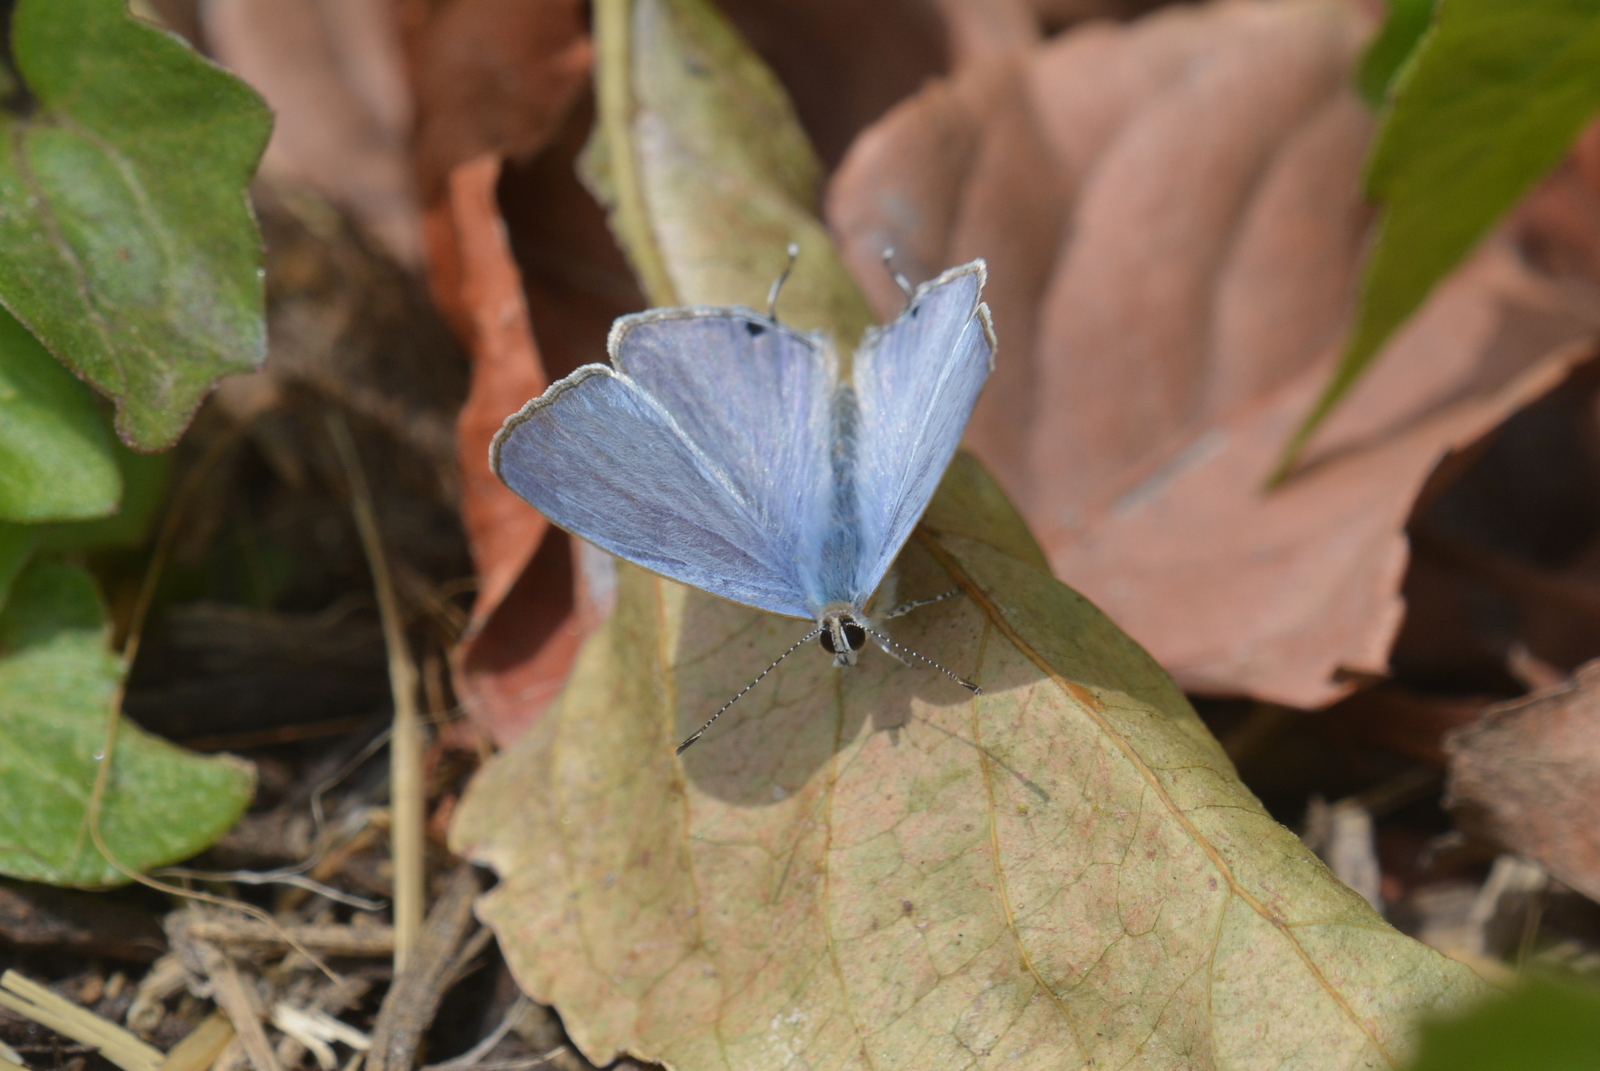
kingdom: Animalia
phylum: Arthropoda
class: Insecta
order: Lepidoptera
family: Lycaenidae
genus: Catochrysops
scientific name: Catochrysops strabo
